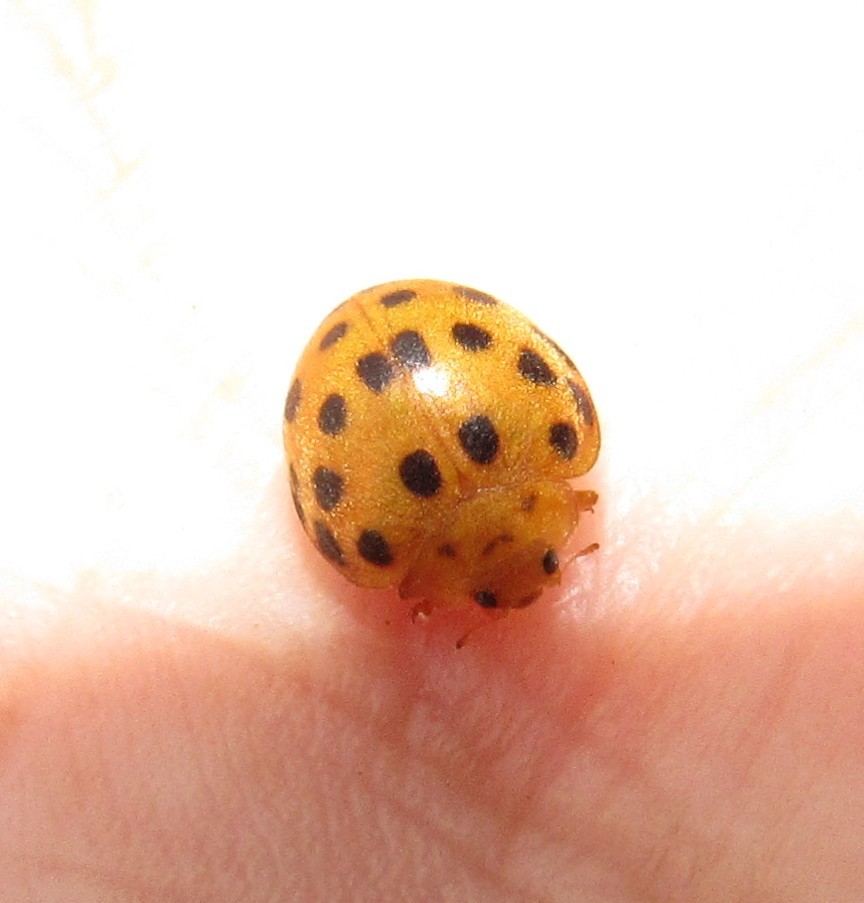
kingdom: Animalia
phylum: Arthropoda
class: Insecta
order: Coleoptera
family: Coccinellidae
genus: Henosepilachna
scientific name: Henosepilachna vigintioctopunctata
